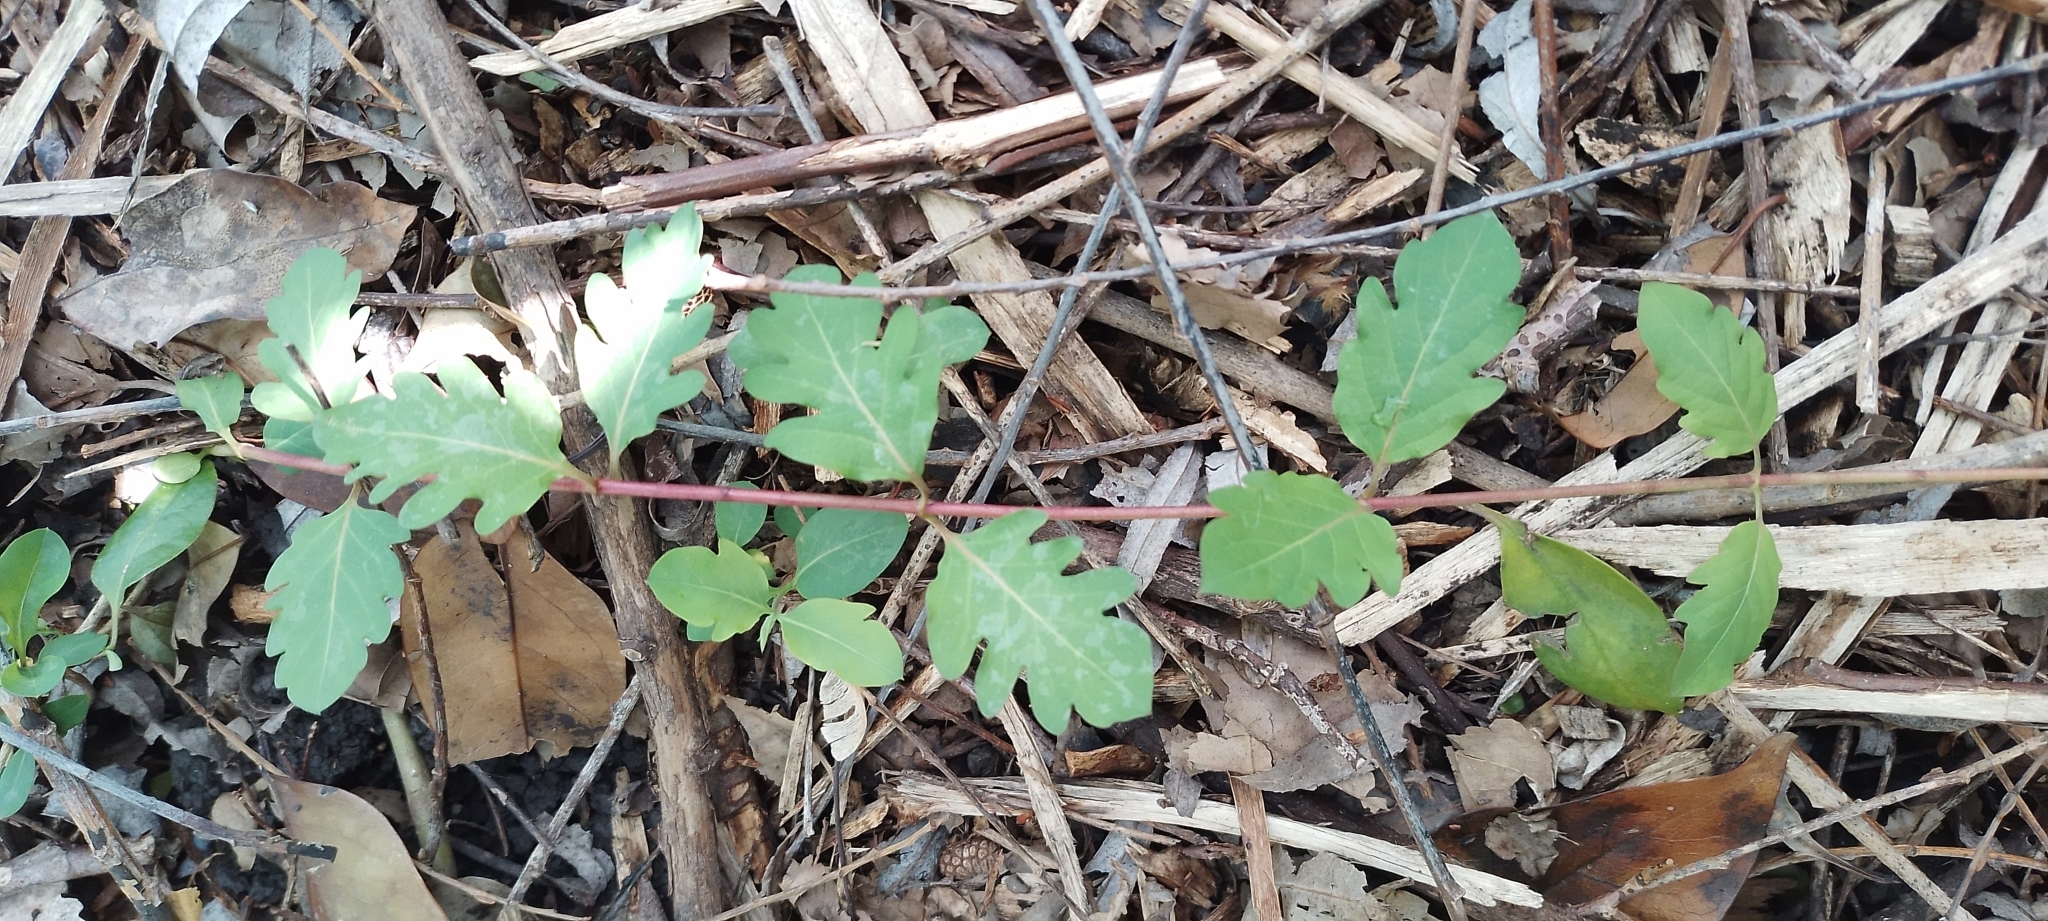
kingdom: Plantae
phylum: Tracheophyta
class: Magnoliopsida
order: Dipsacales
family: Caprifoliaceae
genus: Lonicera
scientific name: Lonicera japonica
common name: Japanese honeysuckle
